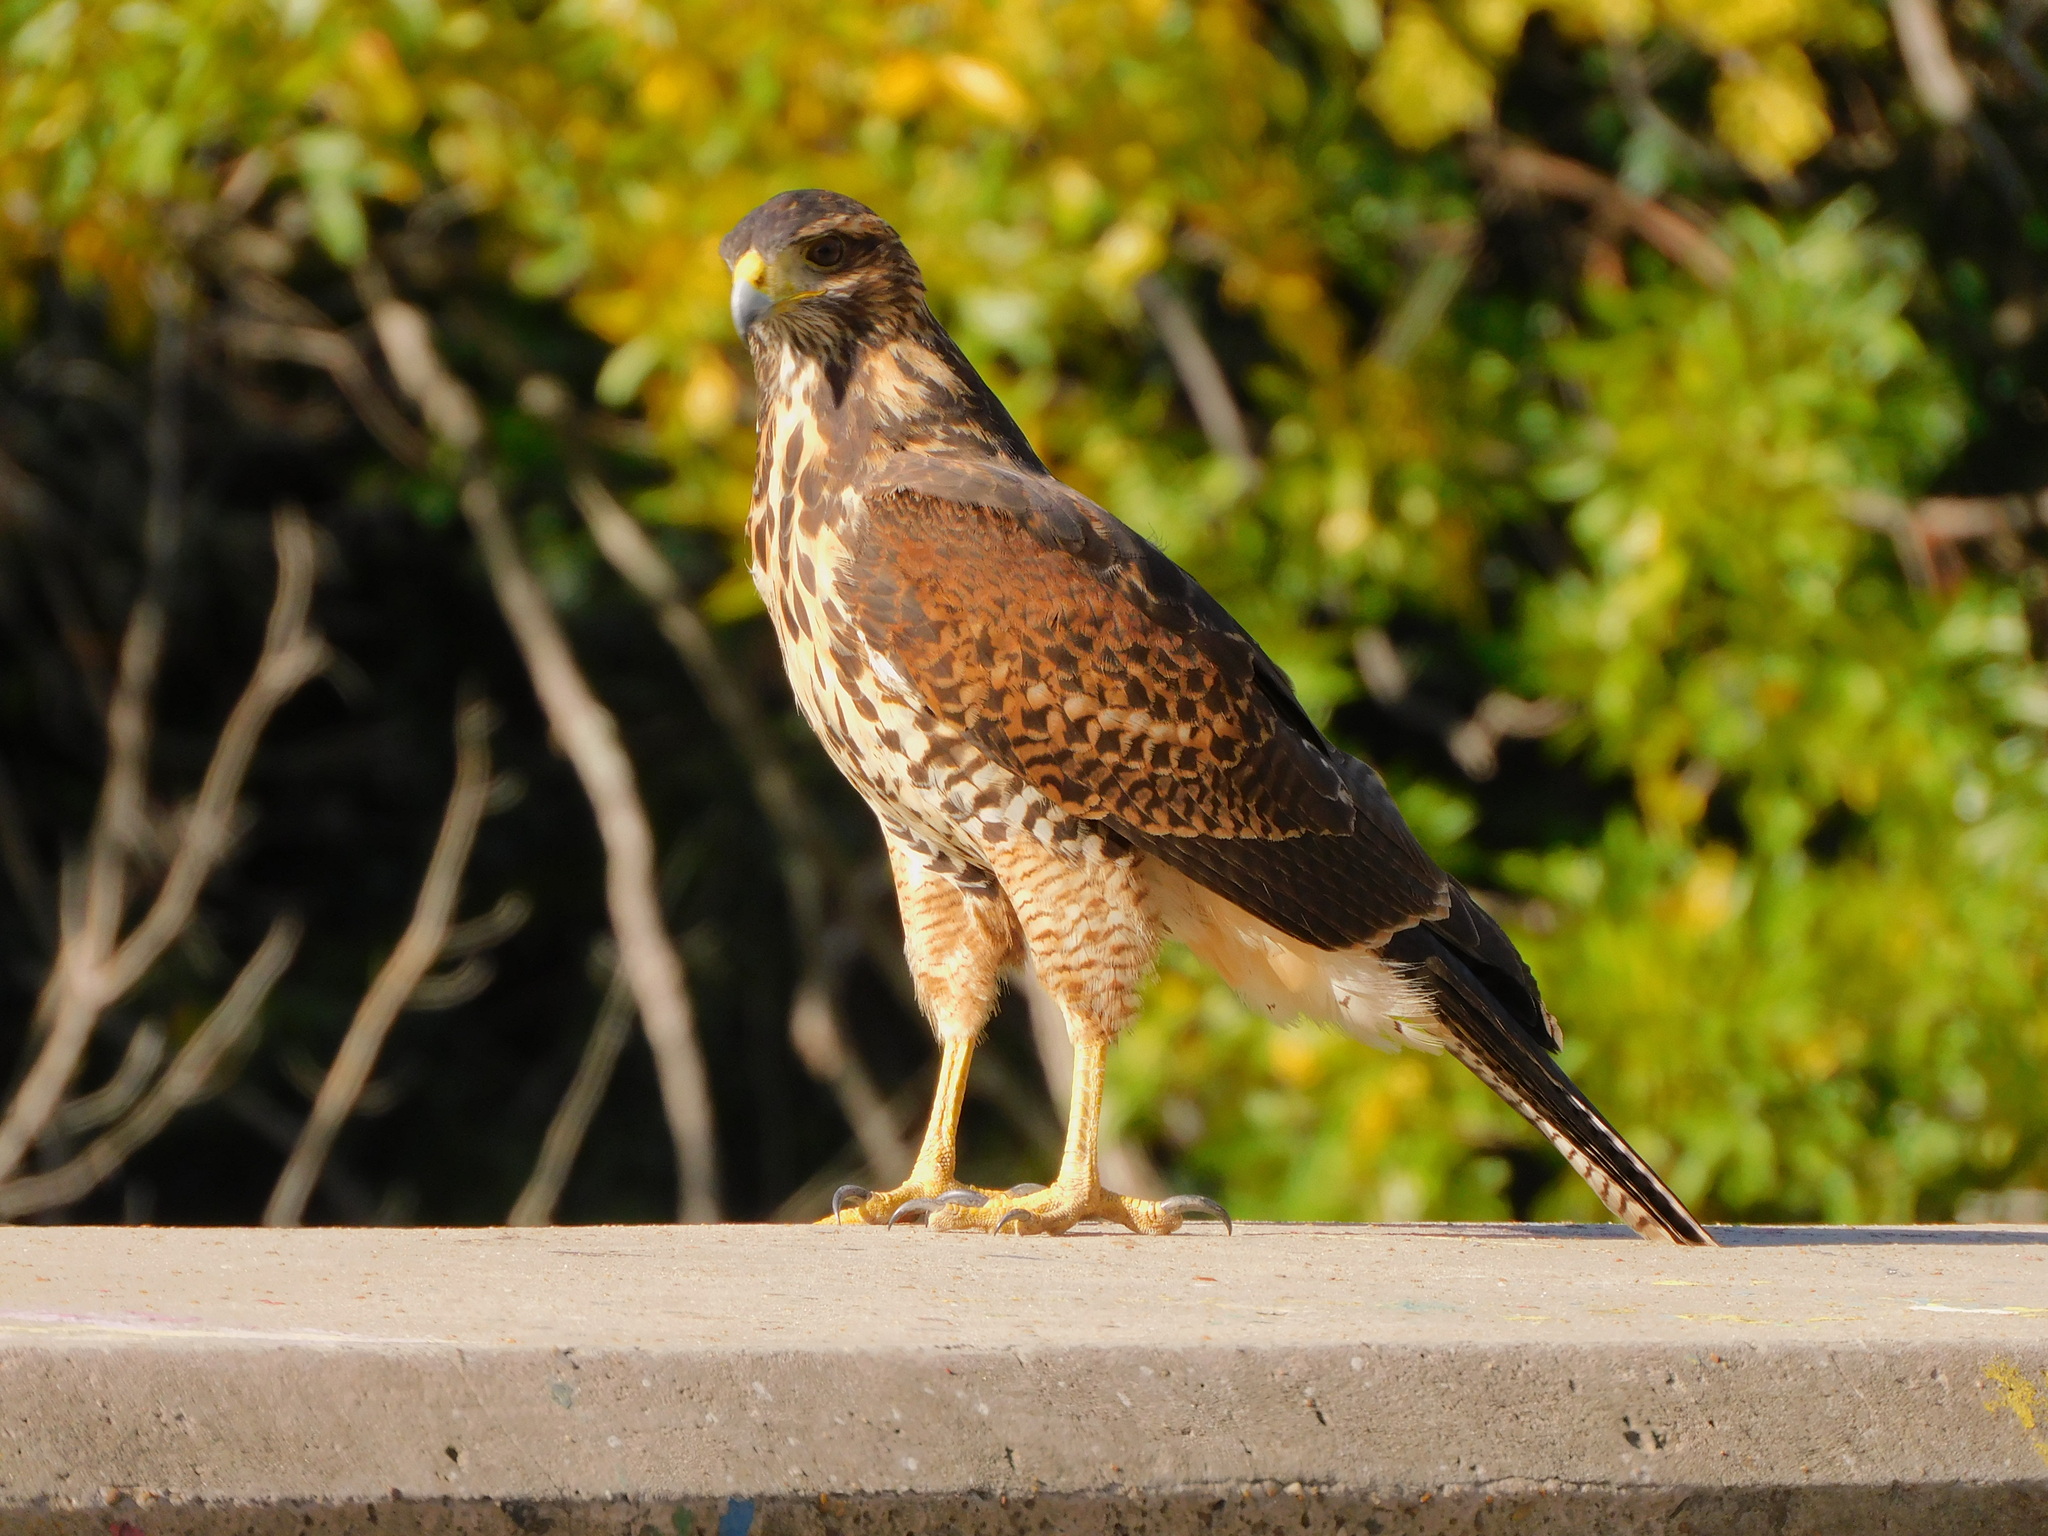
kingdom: Animalia
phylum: Chordata
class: Aves
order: Accipitriformes
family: Accipitridae
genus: Parabuteo
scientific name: Parabuteo unicinctus
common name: Harris's hawk
